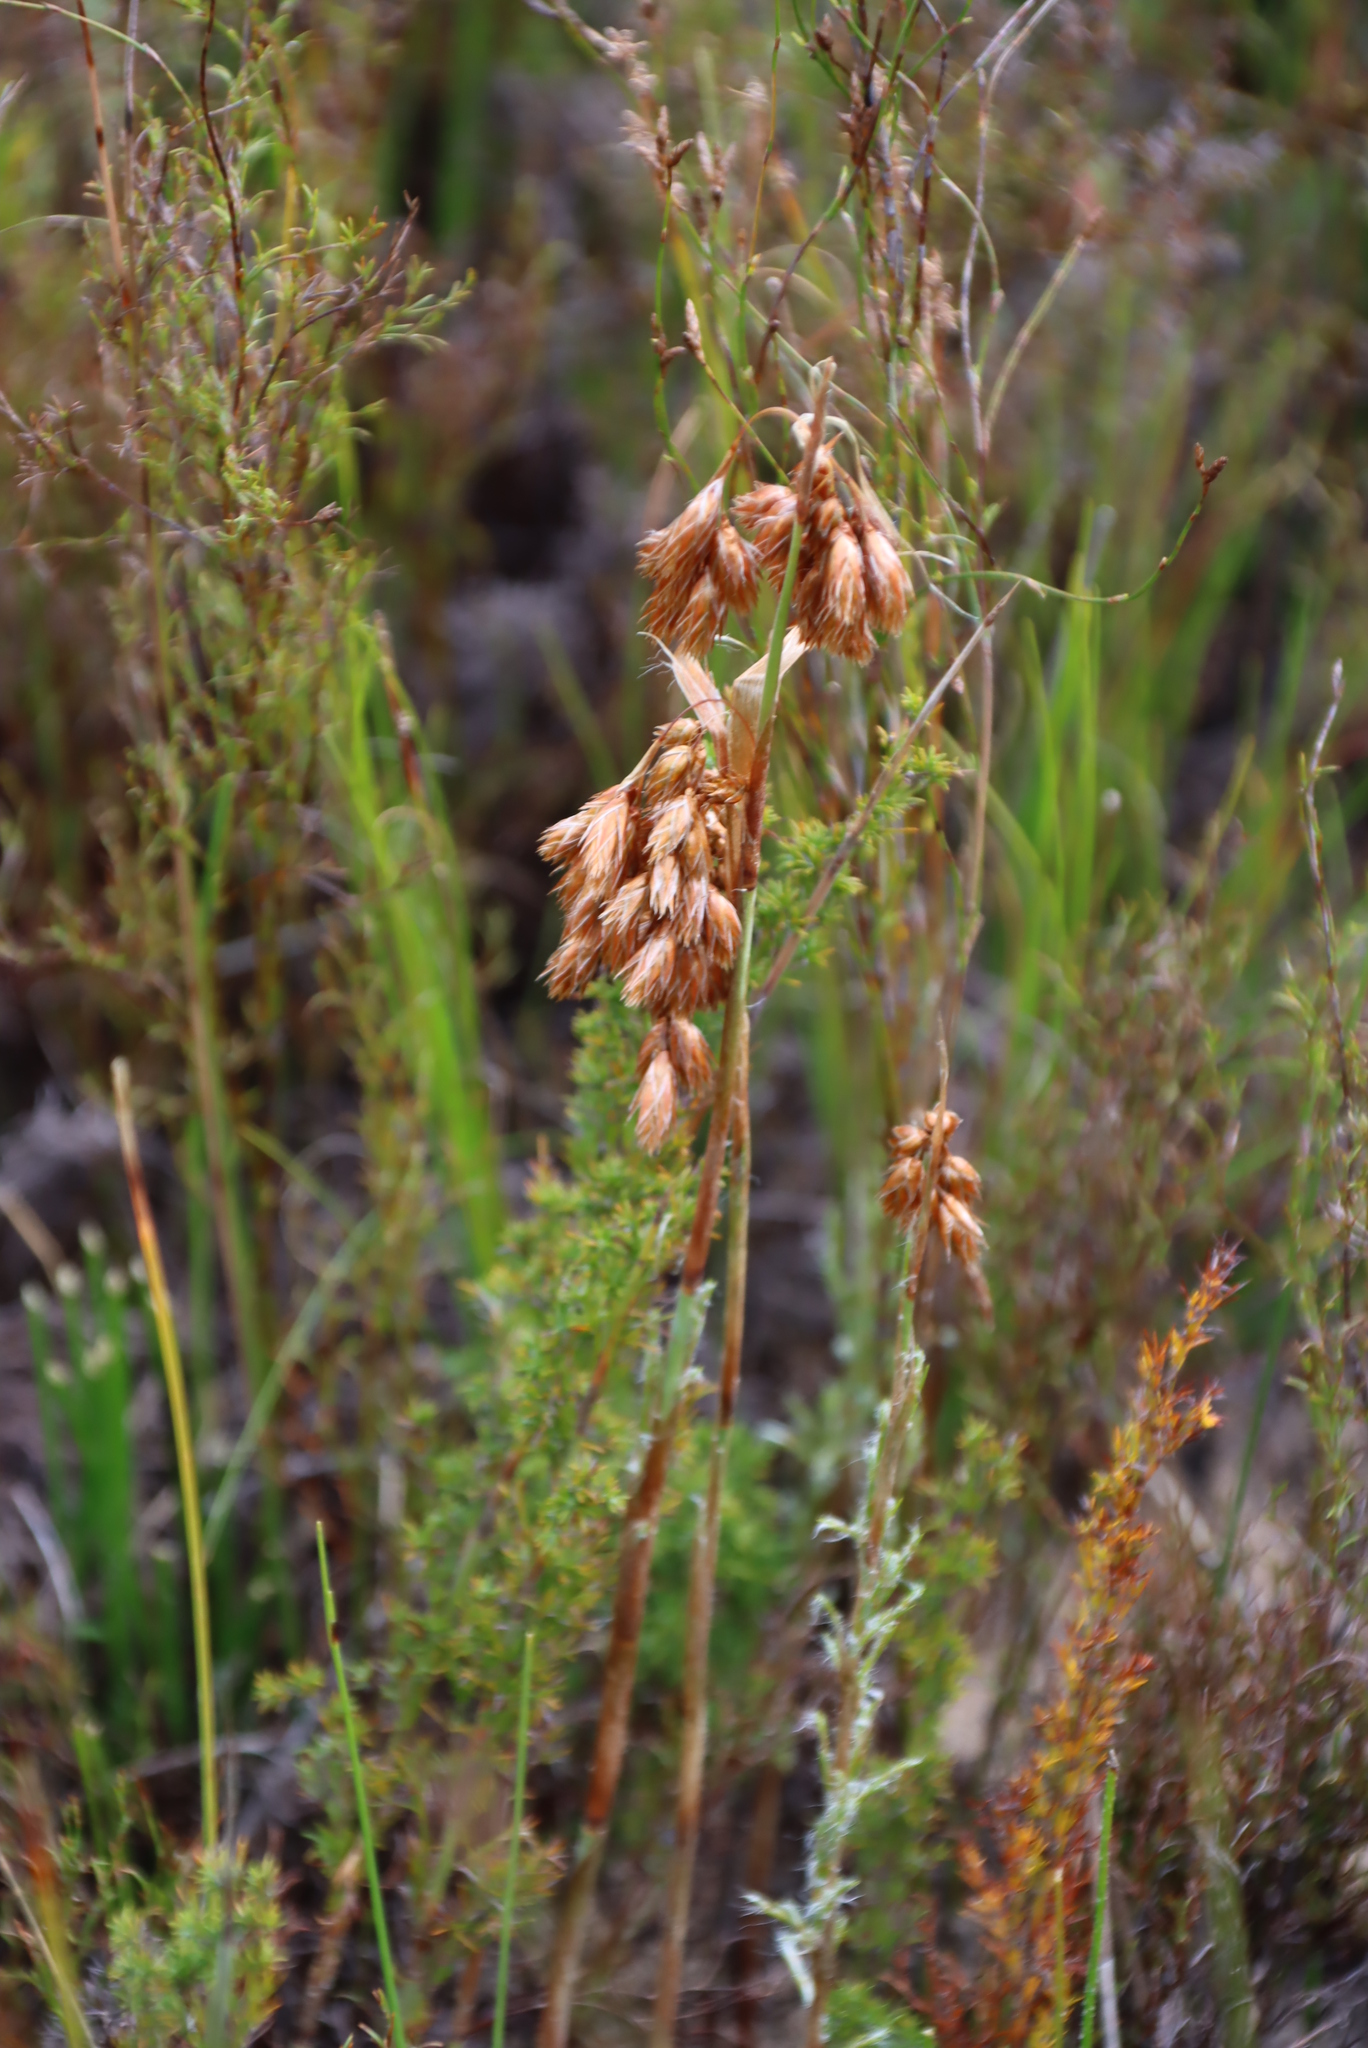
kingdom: Plantae
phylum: Tracheophyta
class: Liliopsida
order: Poales
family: Restionaceae
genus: Thamnochortus
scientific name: Thamnochortus fruticosus
